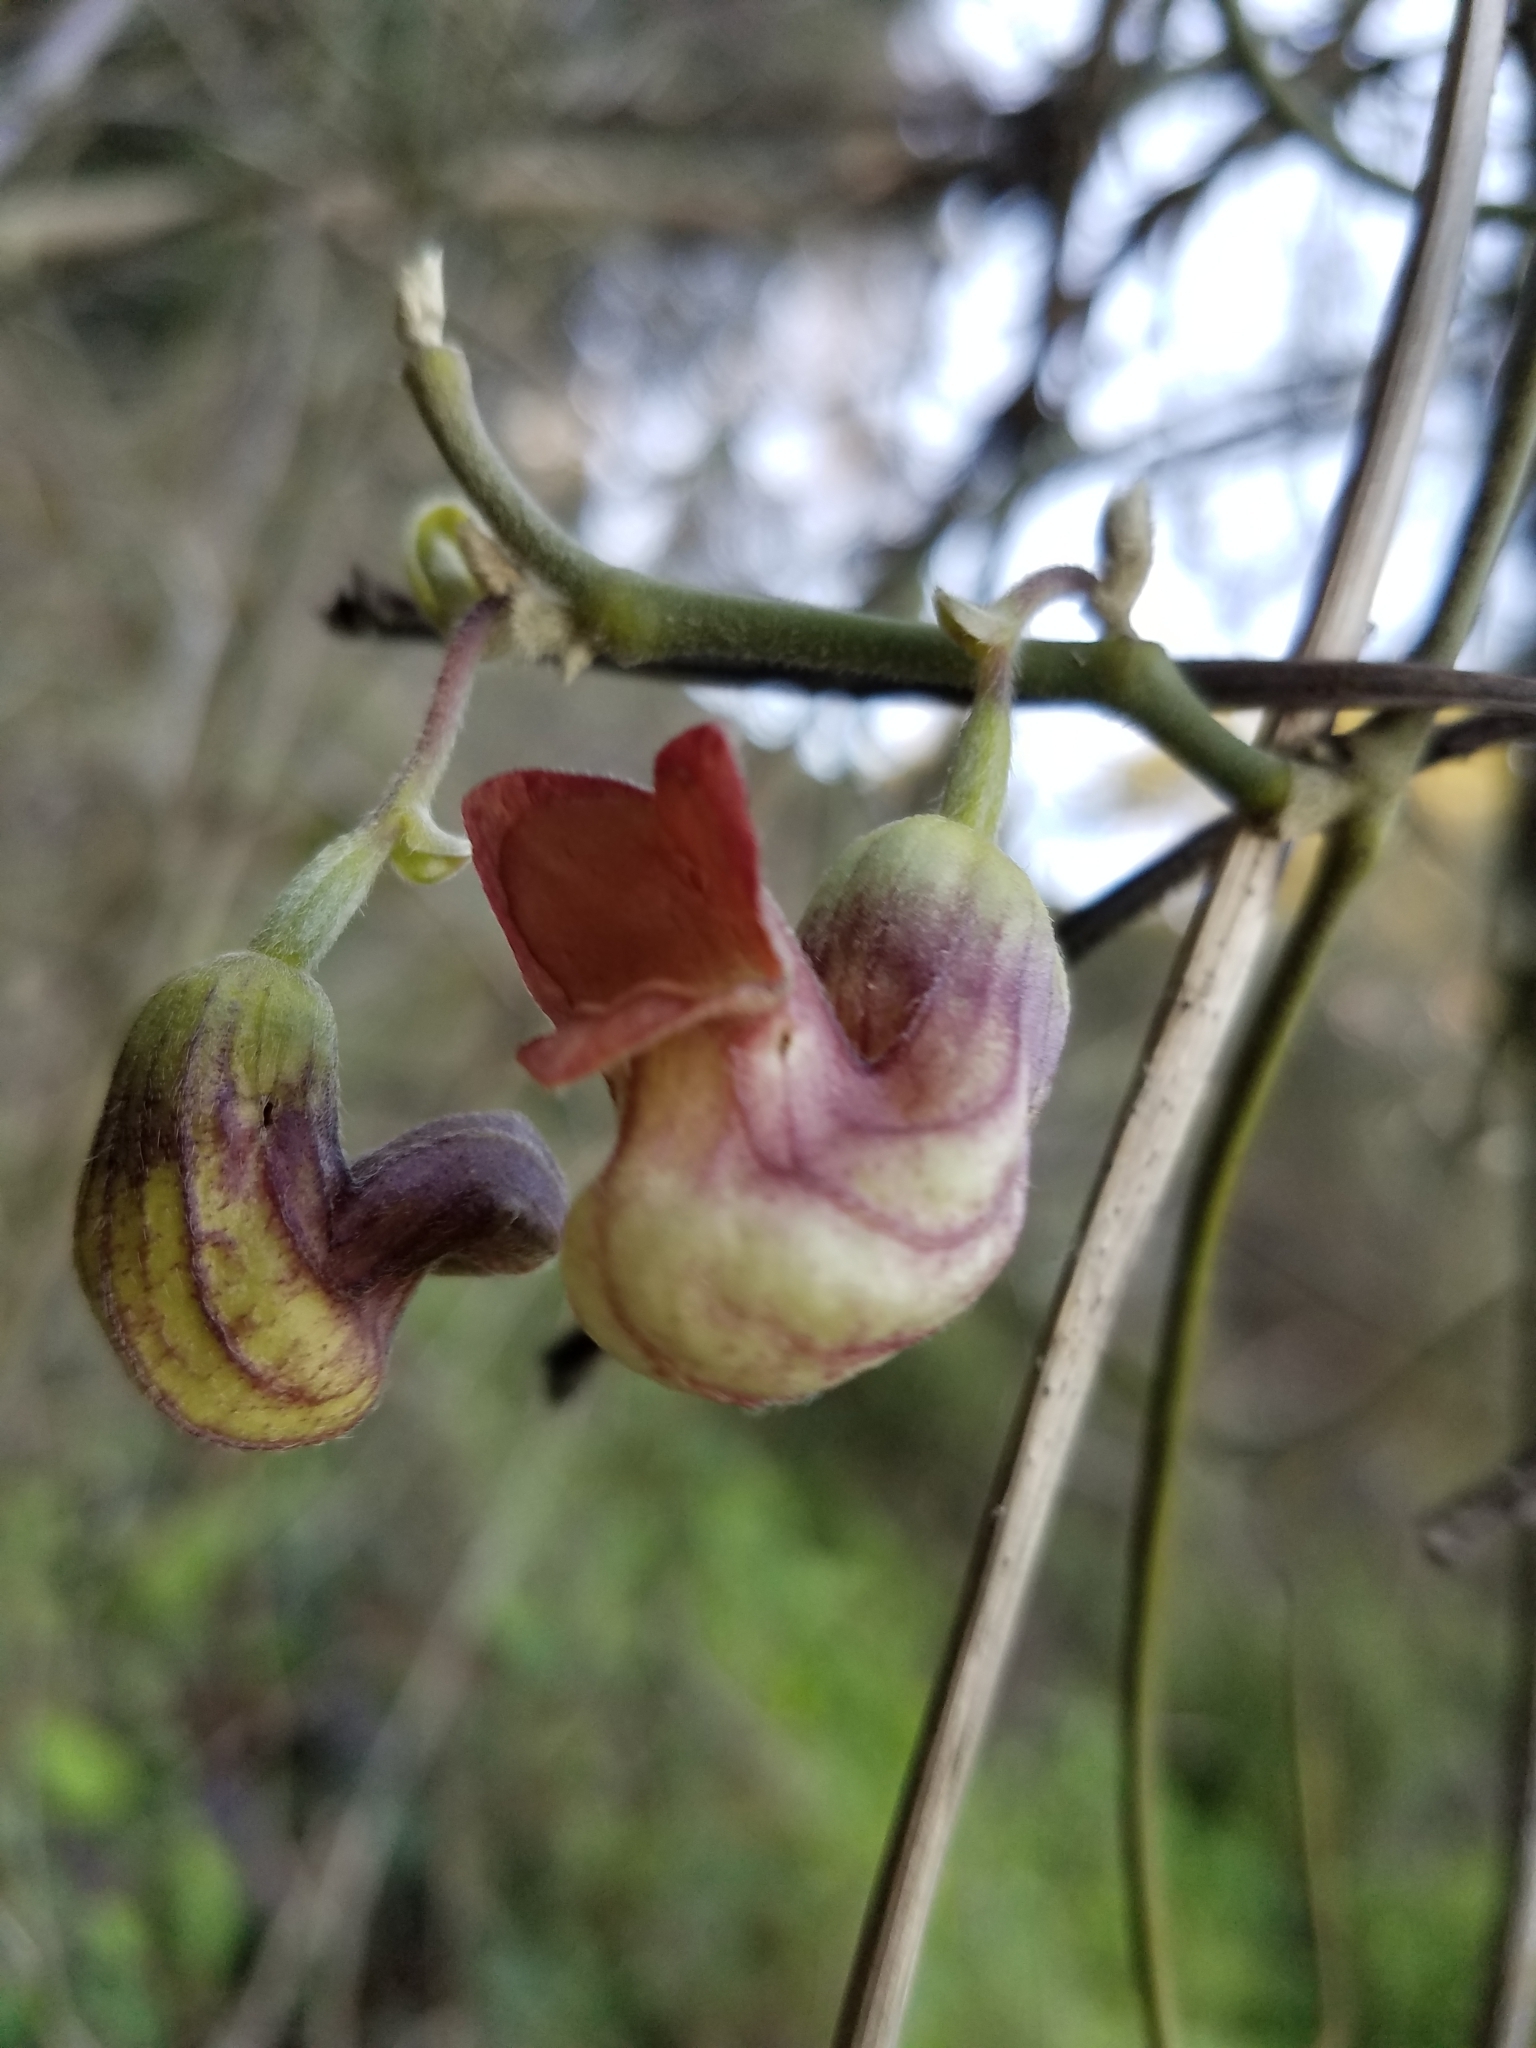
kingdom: Plantae
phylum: Tracheophyta
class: Magnoliopsida
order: Piperales
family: Aristolochiaceae
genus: Isotrema
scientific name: Isotrema californicum
